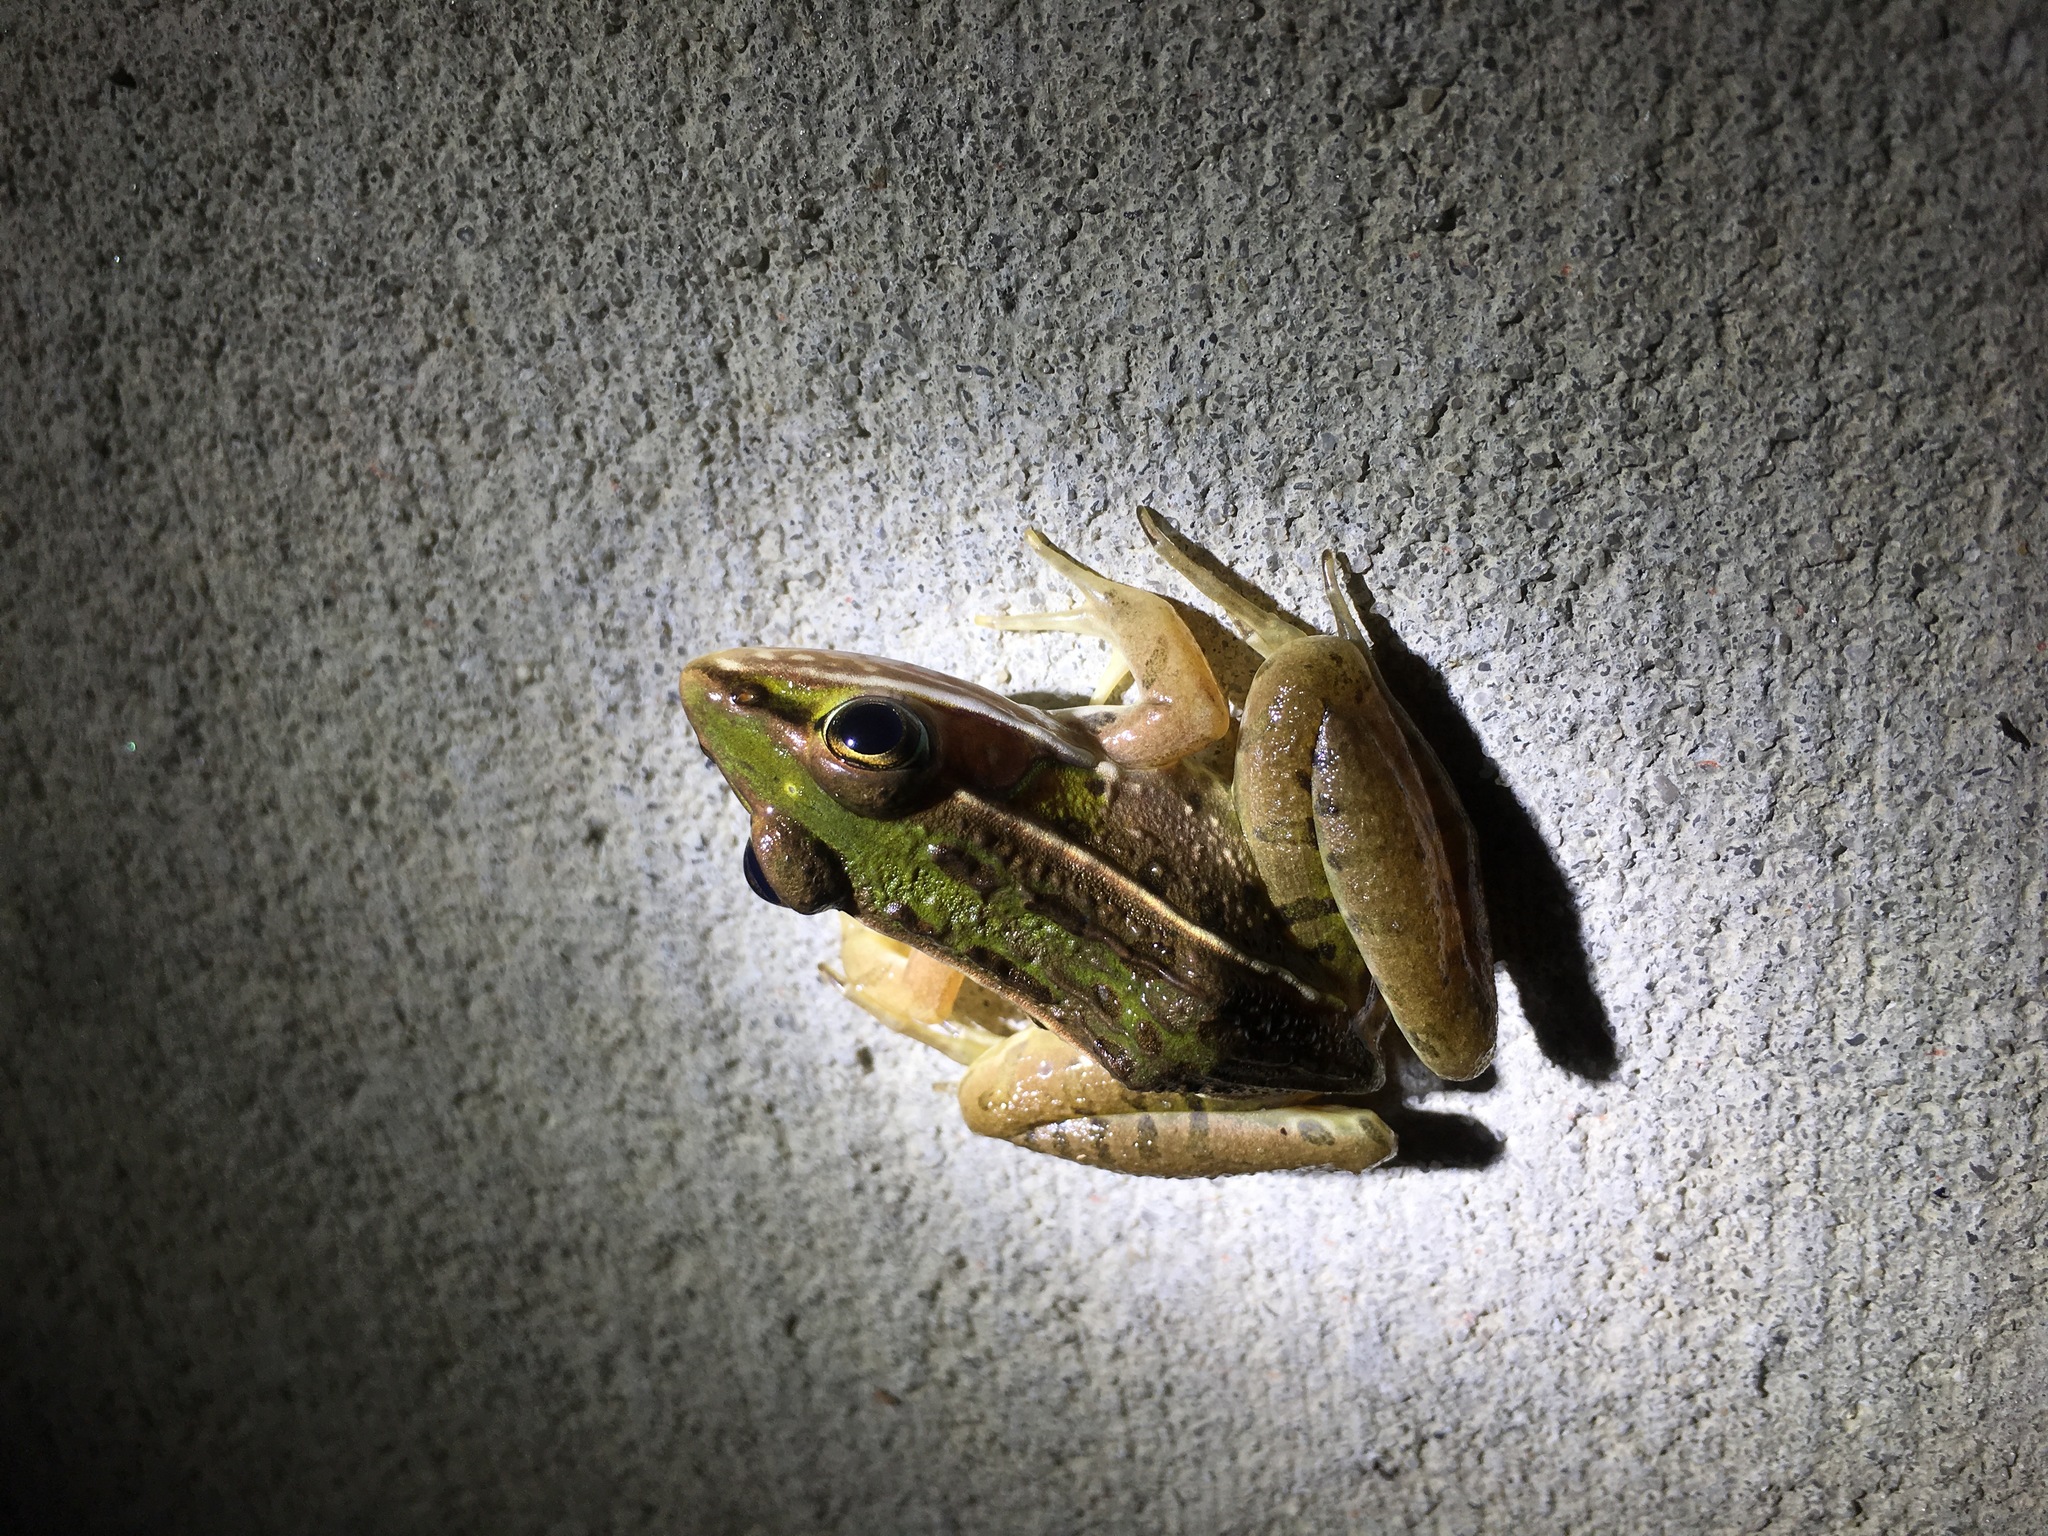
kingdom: Animalia
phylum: Chordata
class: Amphibia
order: Anura
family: Ranidae
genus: Lithobates
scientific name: Lithobates sphenocephalus
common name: Southern leopard frog
